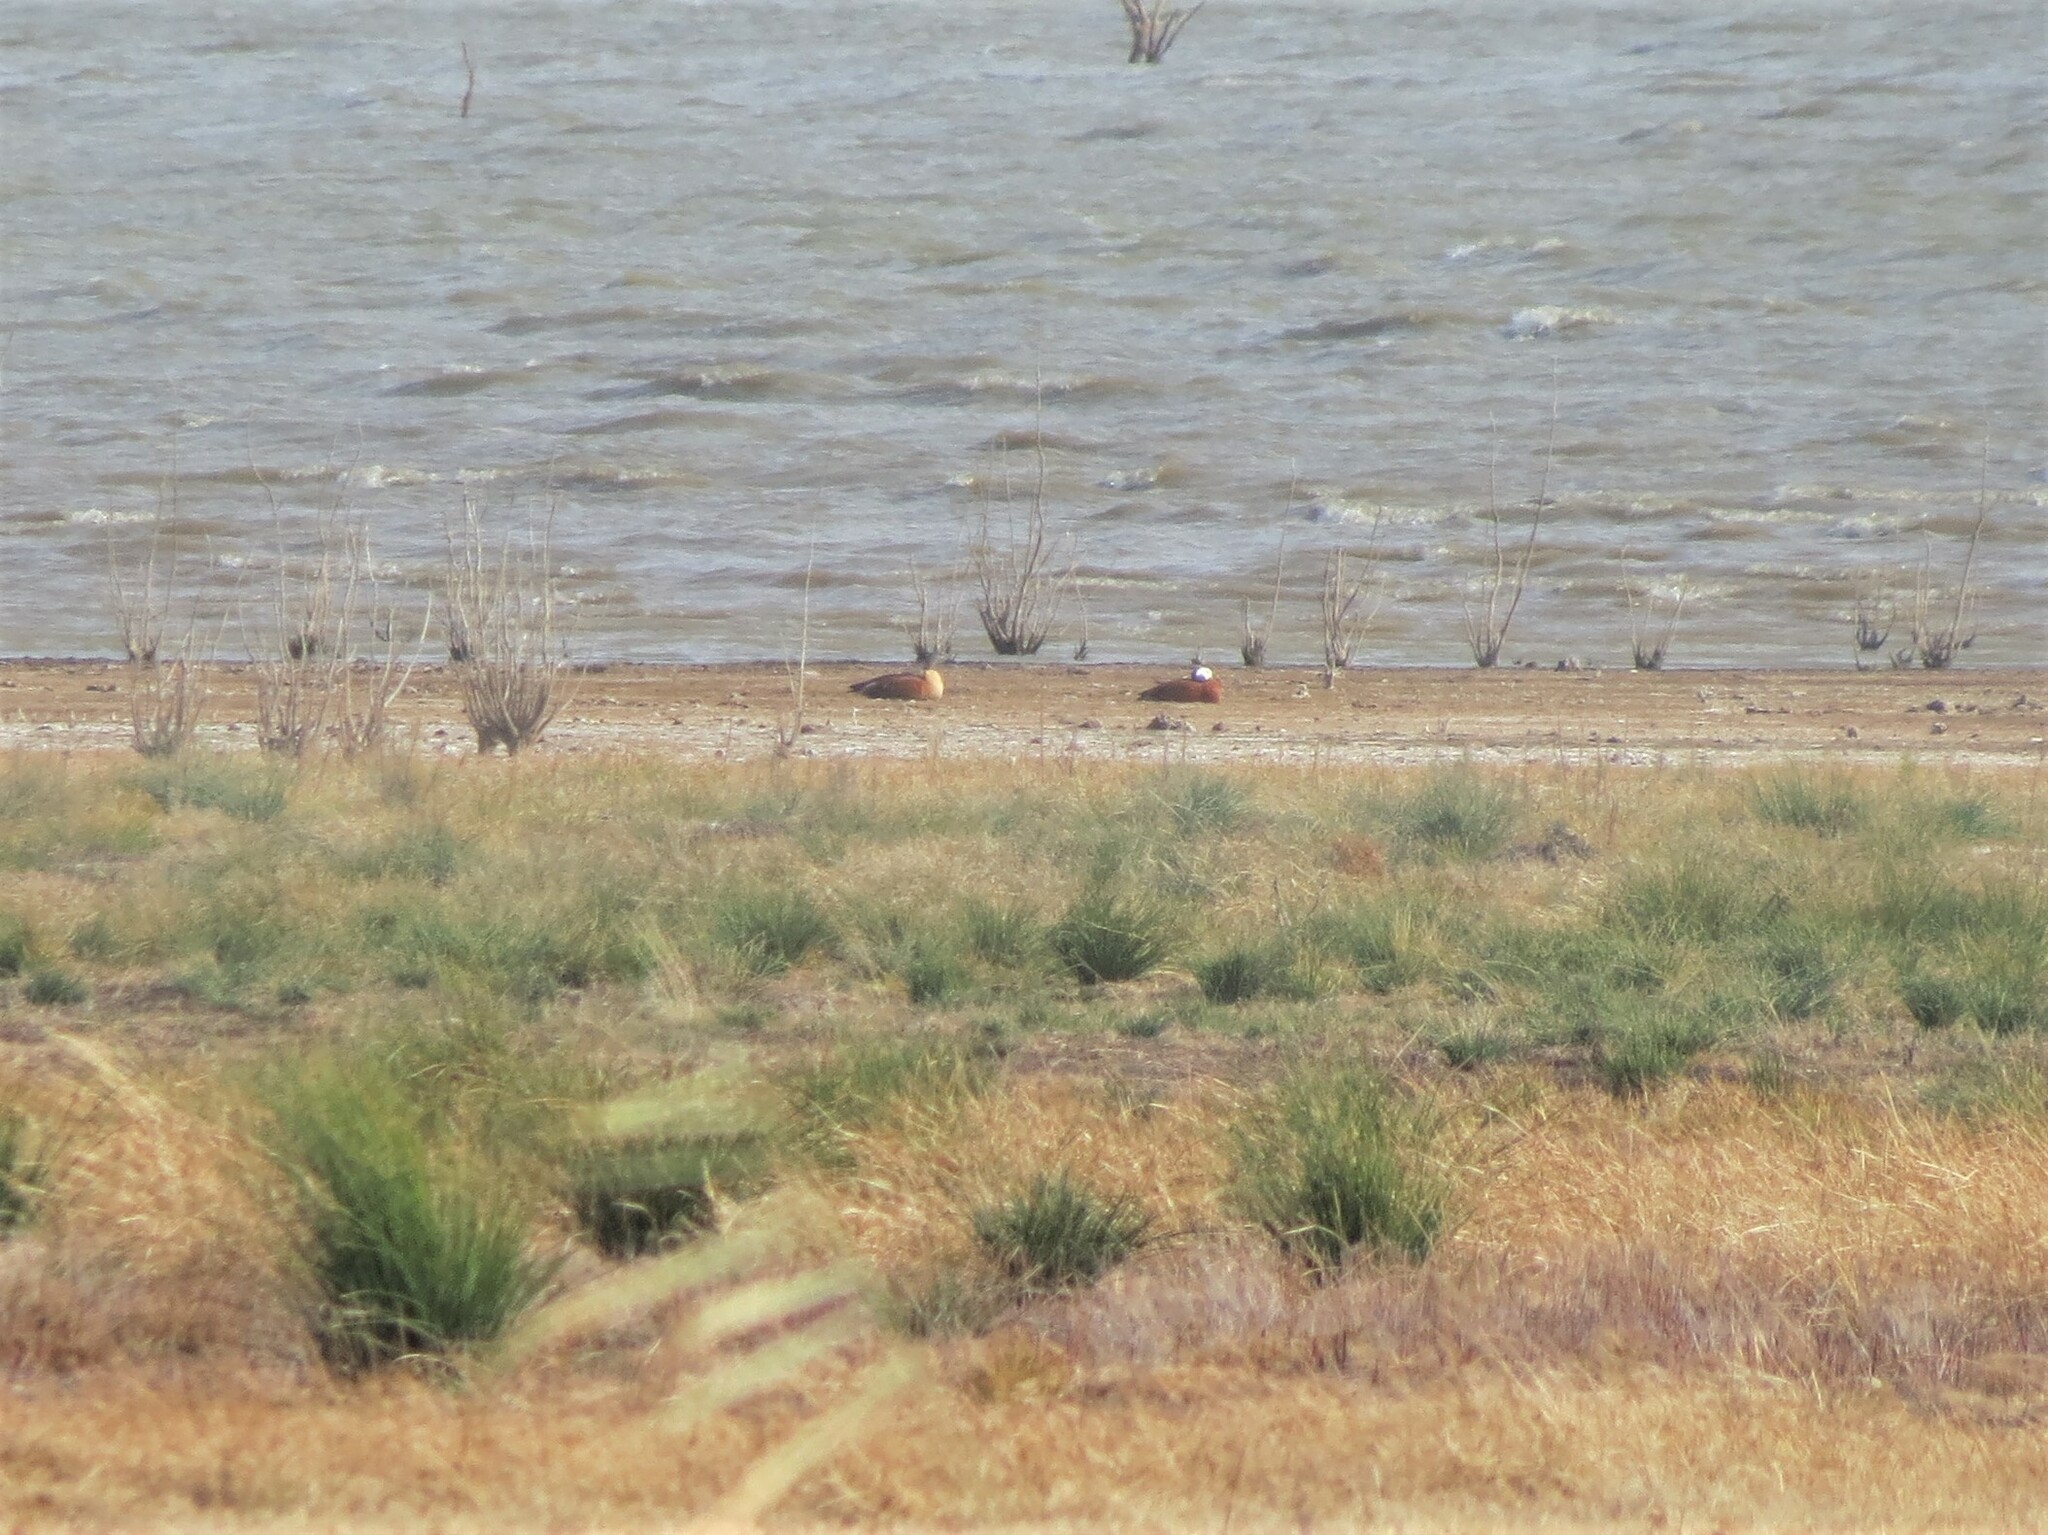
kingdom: Animalia
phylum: Chordata
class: Aves
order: Anseriformes
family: Anatidae
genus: Tadorna
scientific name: Tadorna cana
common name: South african shelduck
